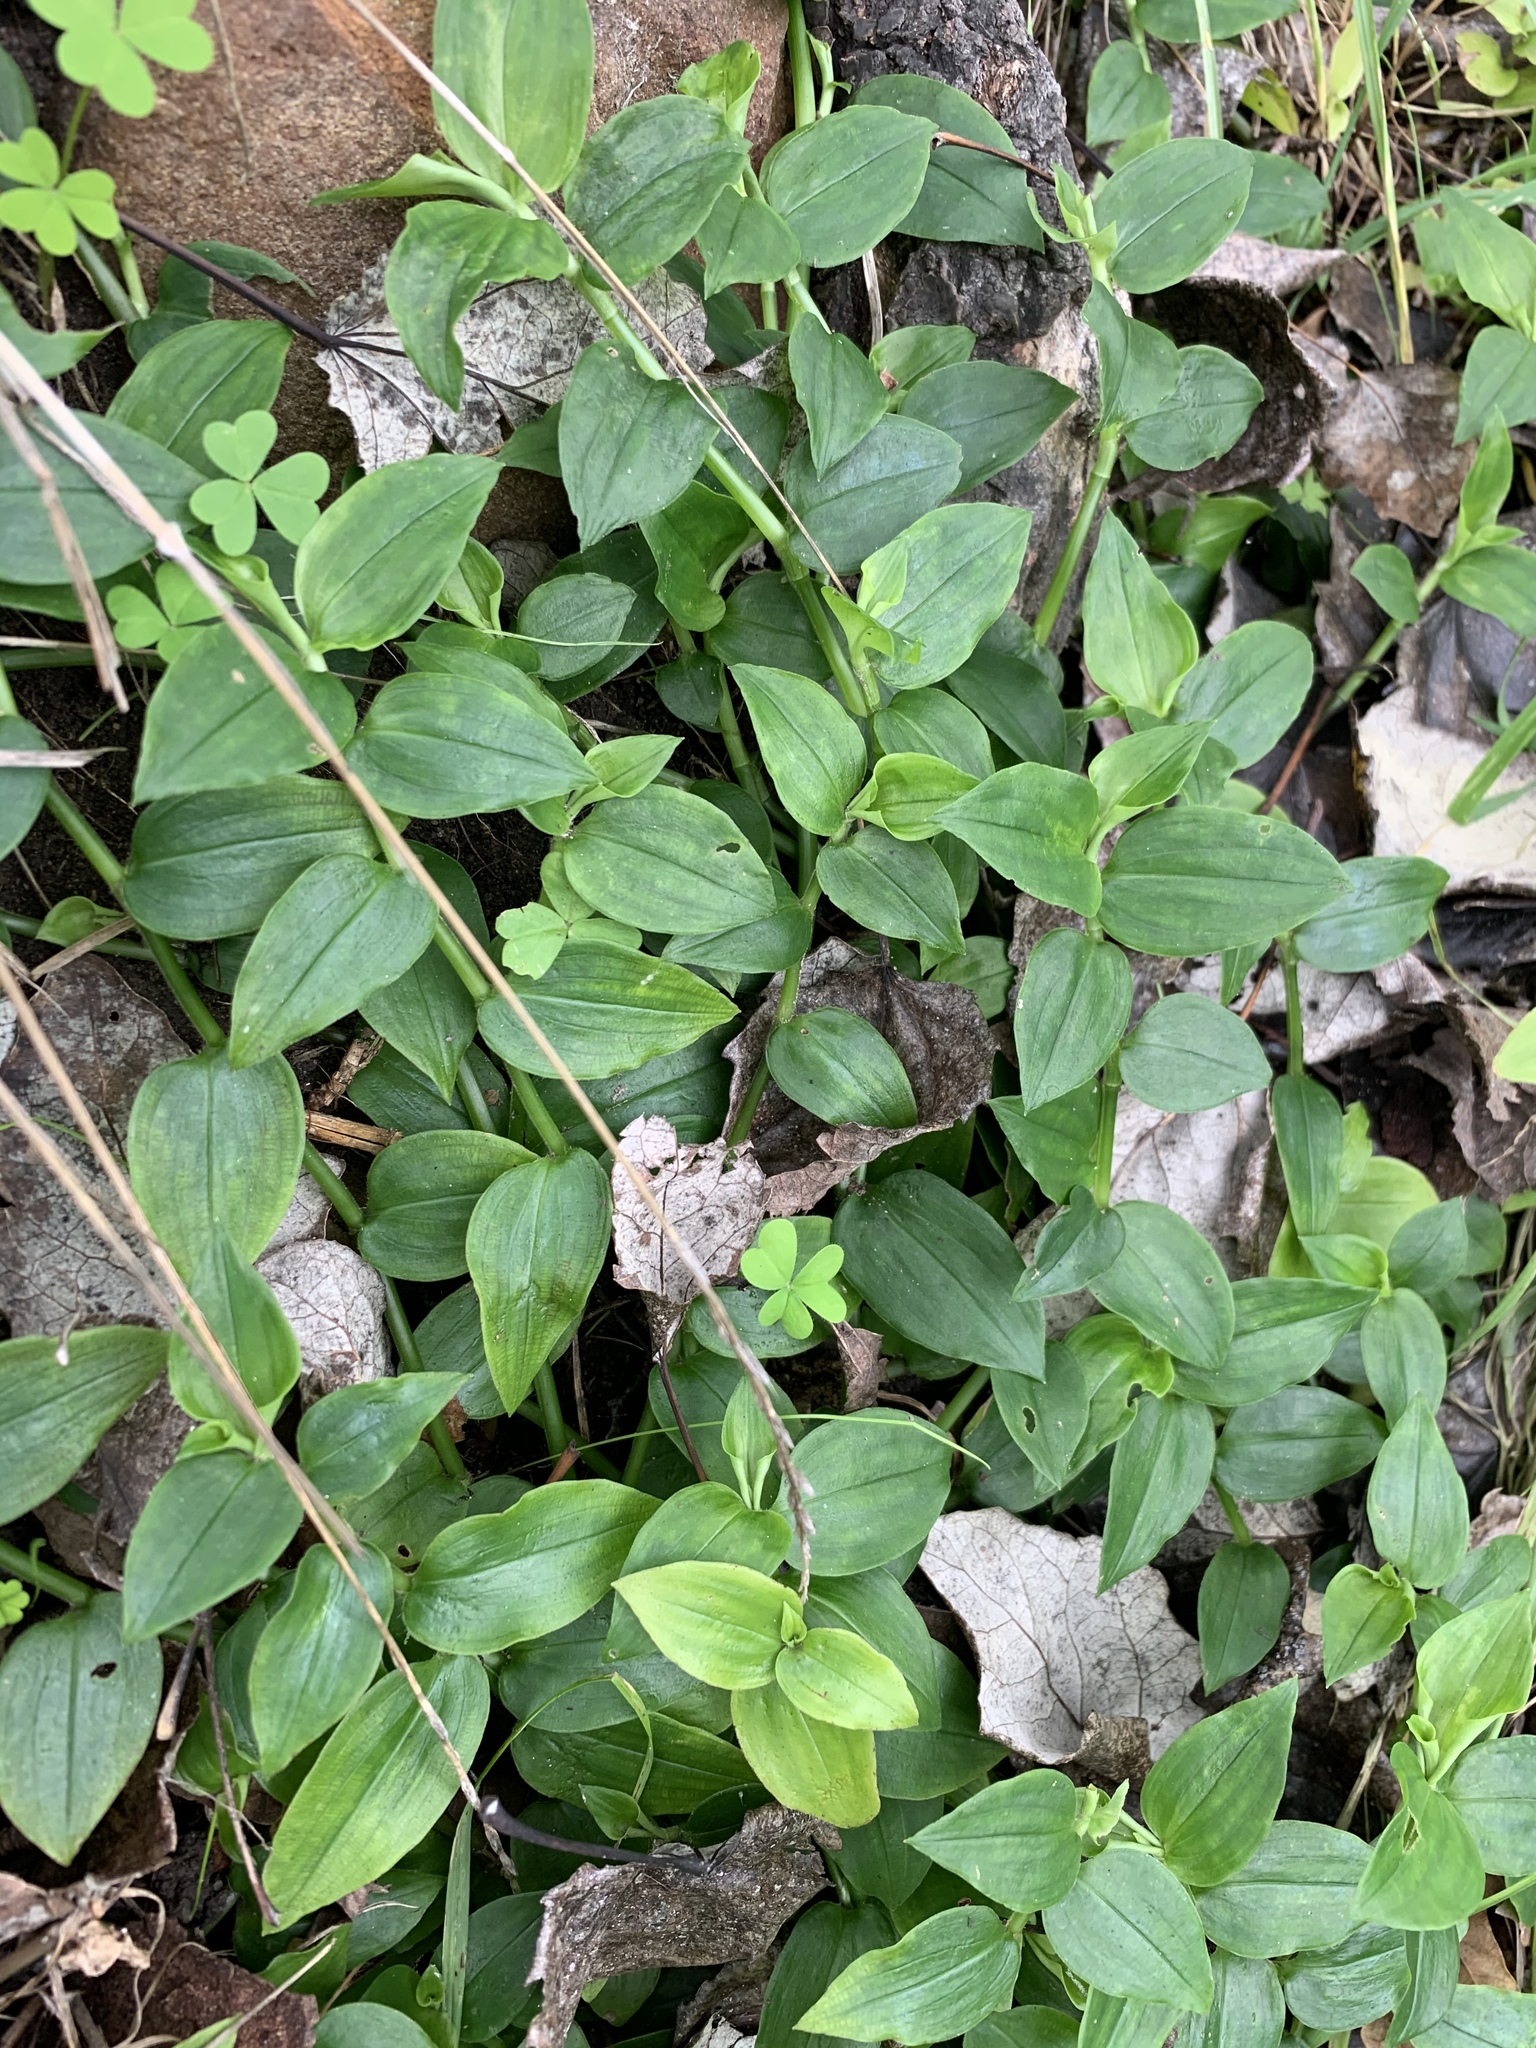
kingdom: Plantae
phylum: Tracheophyta
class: Liliopsida
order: Commelinales
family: Commelinaceae
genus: Tradescantia
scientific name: Tradescantia fluminensis
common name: Wandering-jew
